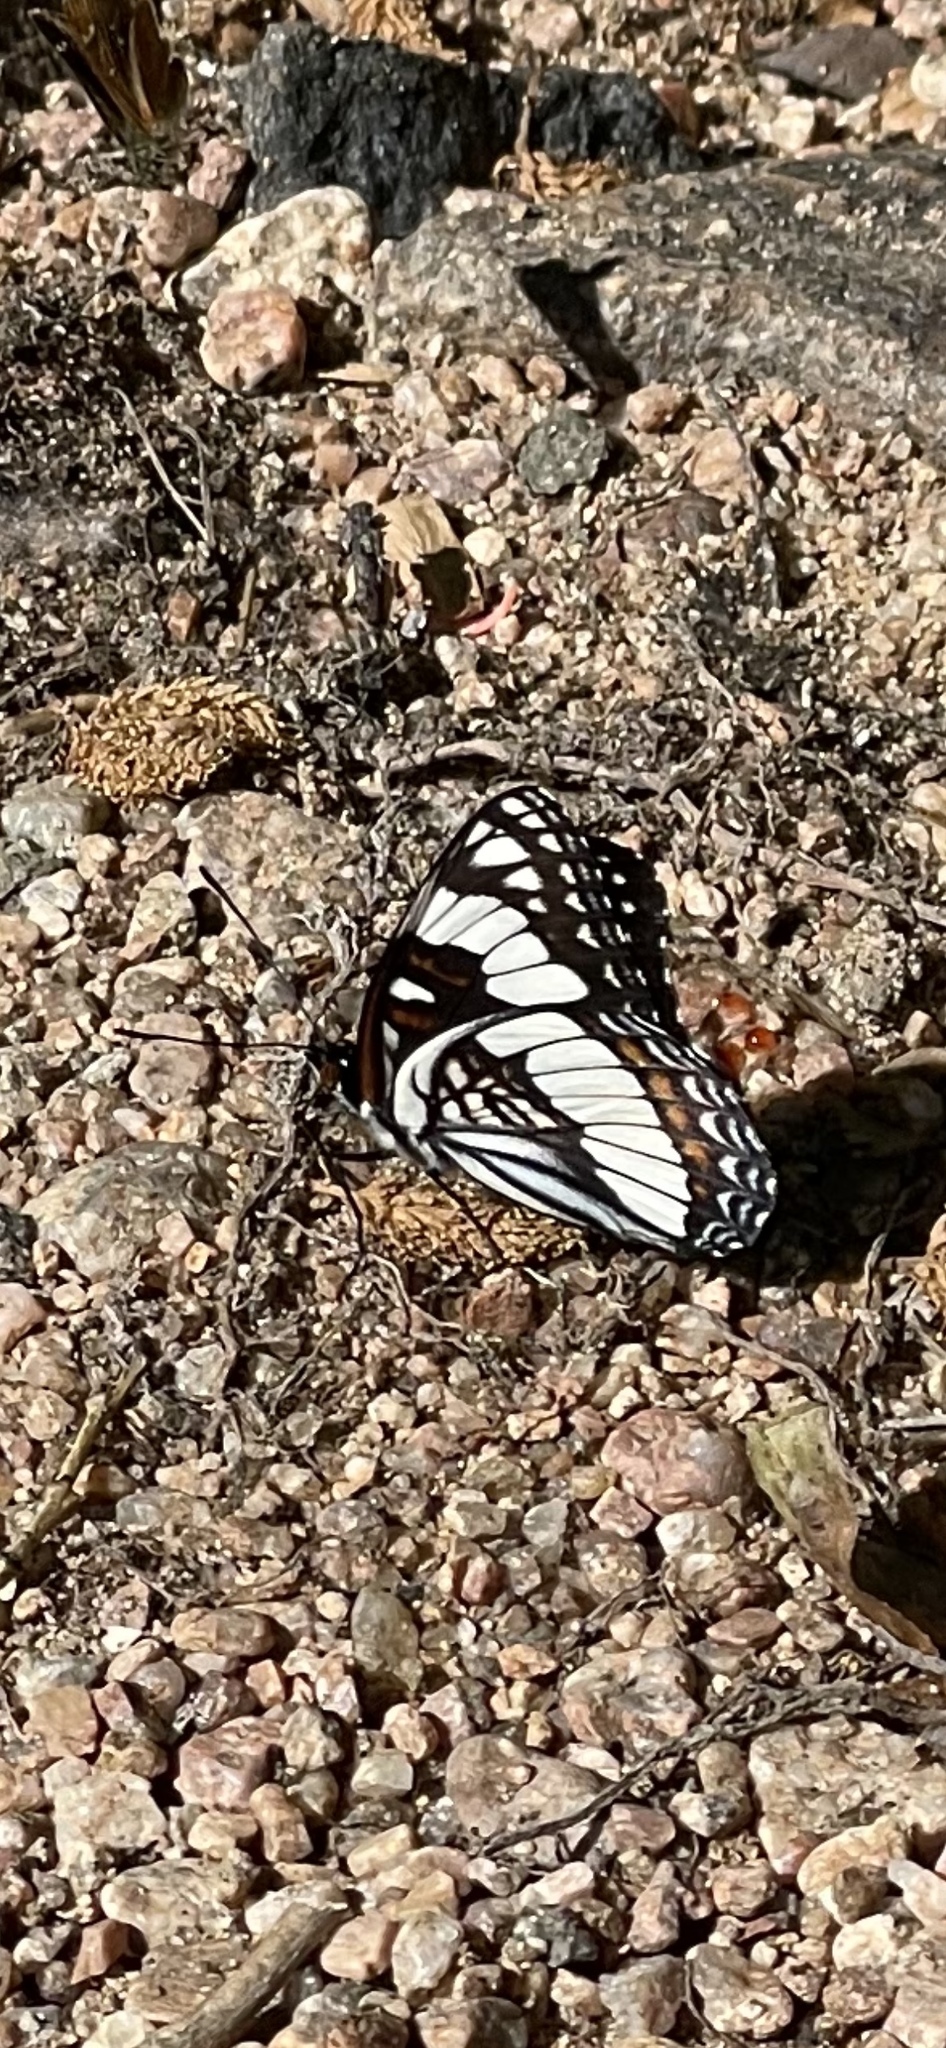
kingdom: Animalia
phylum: Arthropoda
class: Insecta
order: Lepidoptera
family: Nymphalidae
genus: Limenitis
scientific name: Limenitis weidemeyerii
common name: Weidemeyer's admiral
